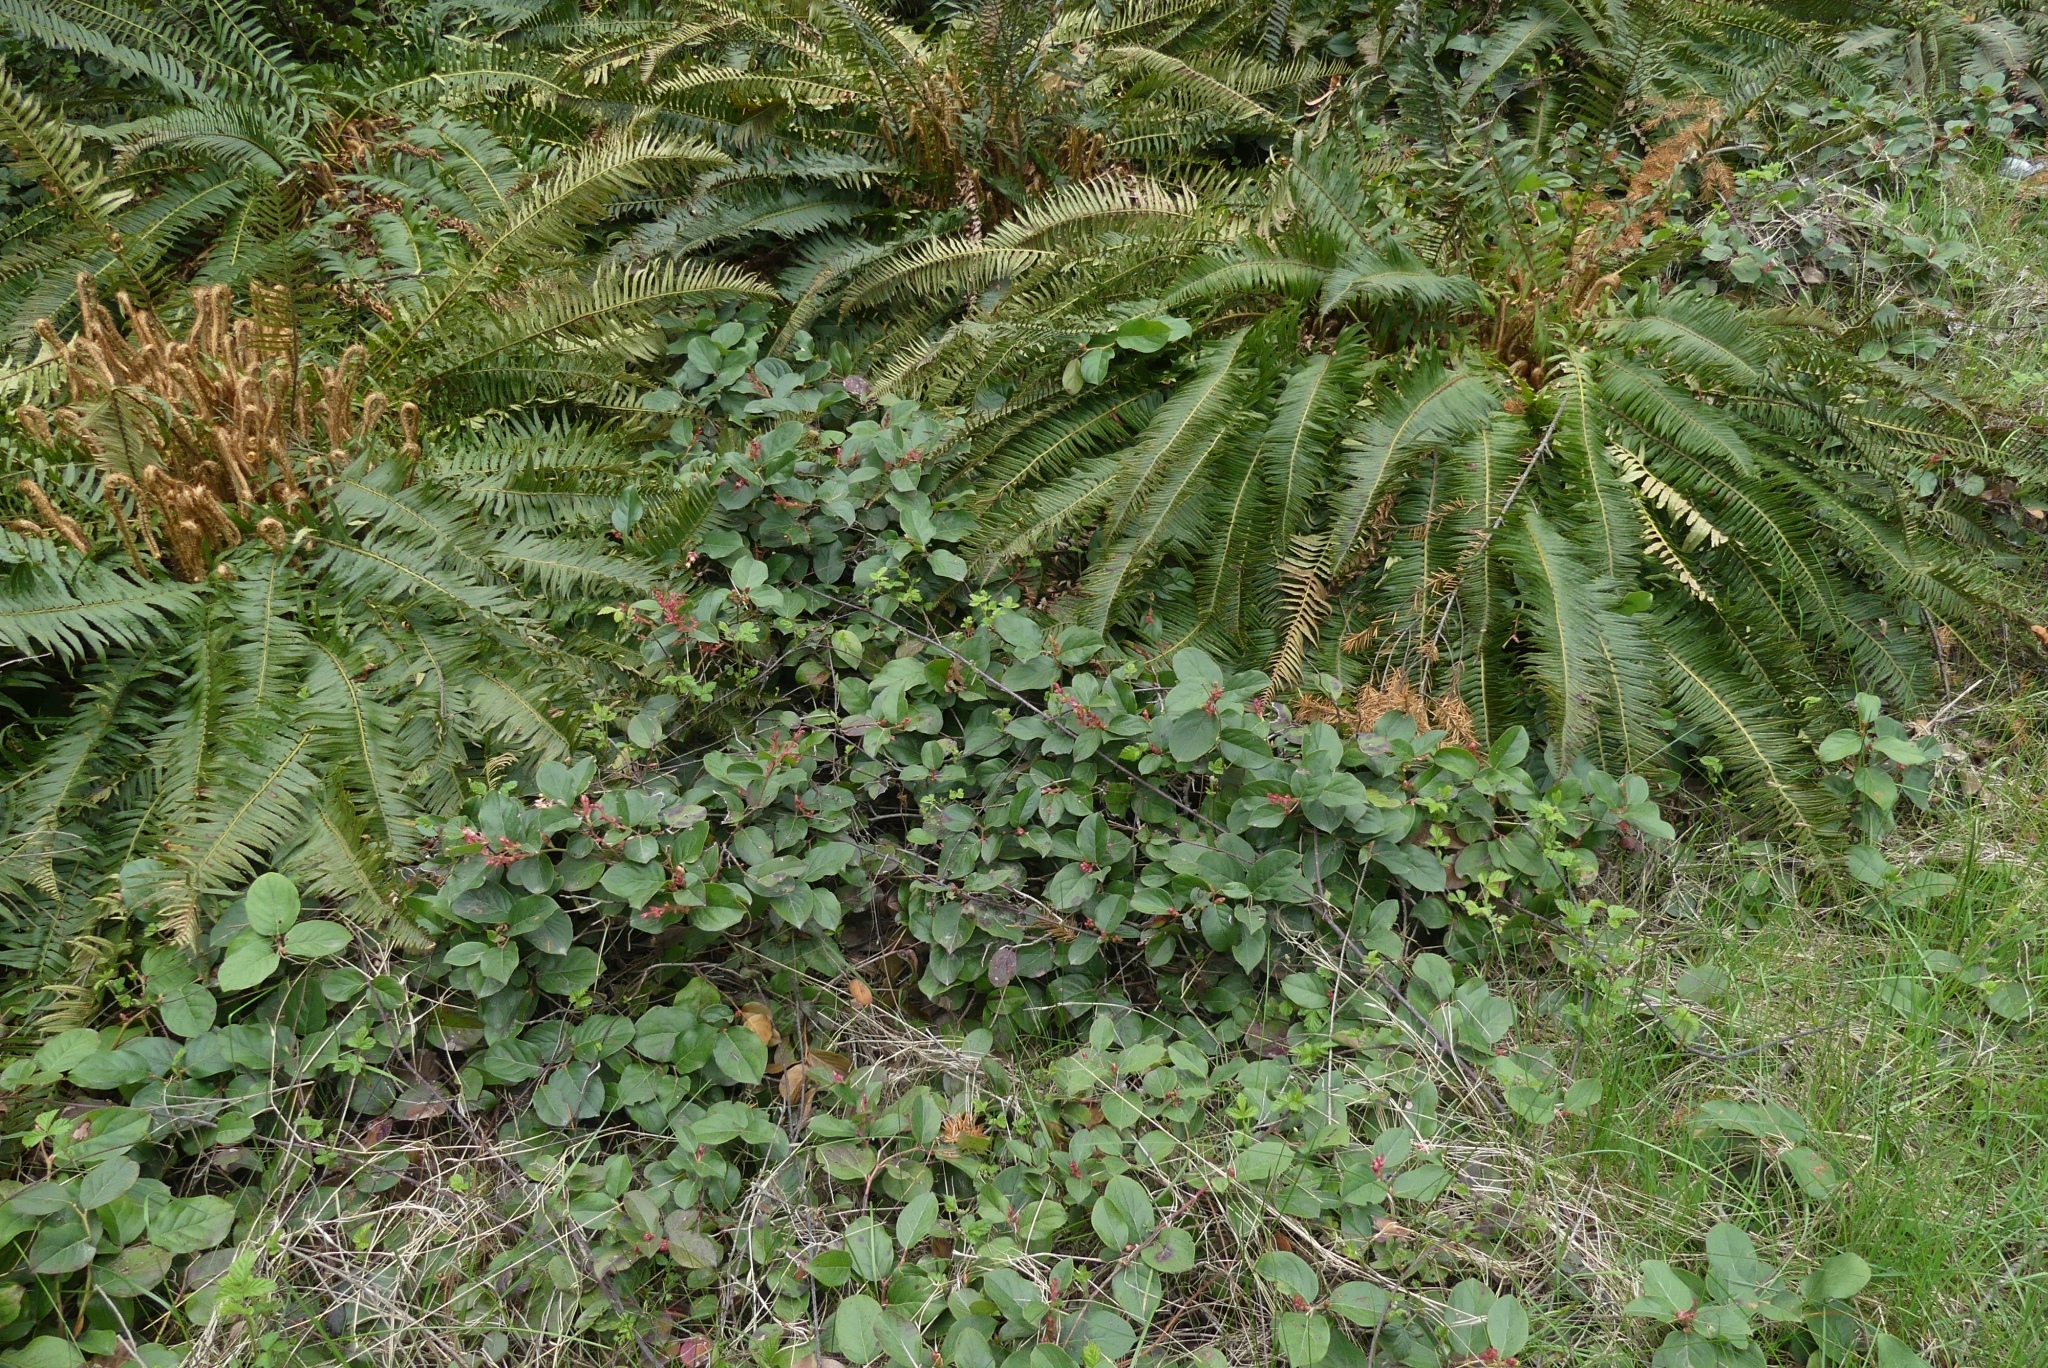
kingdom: Plantae
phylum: Tracheophyta
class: Magnoliopsida
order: Ericales
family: Ericaceae
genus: Gaultheria
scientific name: Gaultheria shallon
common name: Shallon
